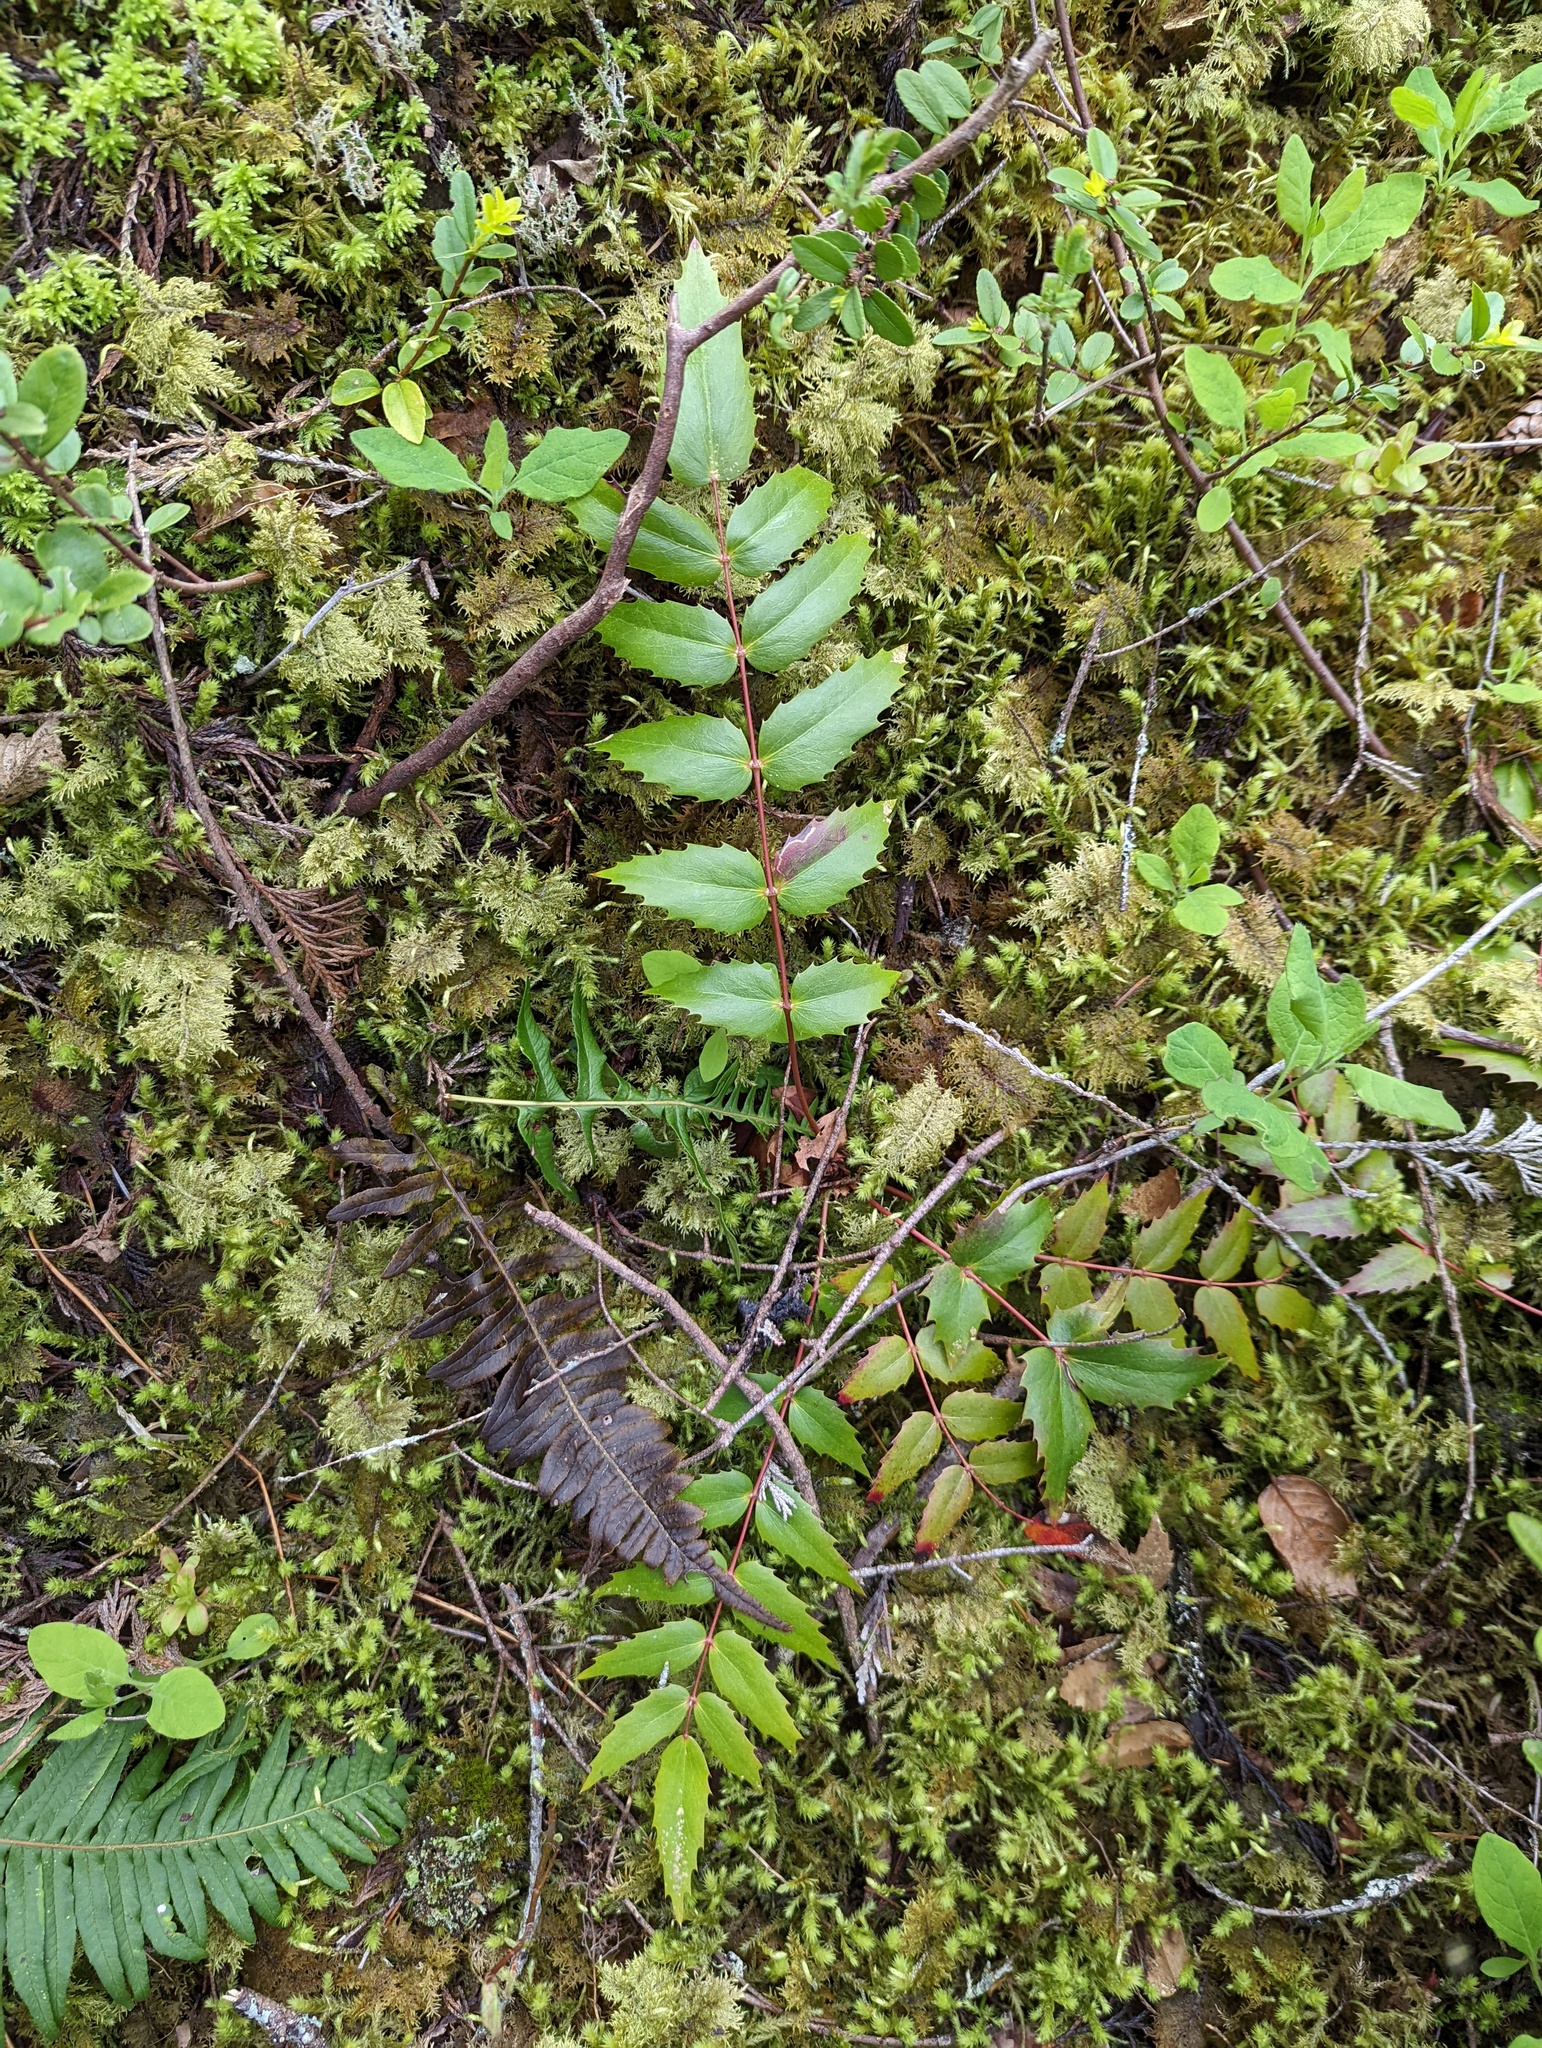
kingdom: Plantae
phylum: Tracheophyta
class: Magnoliopsida
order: Ranunculales
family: Berberidaceae
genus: Mahonia
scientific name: Mahonia nervosa
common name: Cascade oregon-grape
